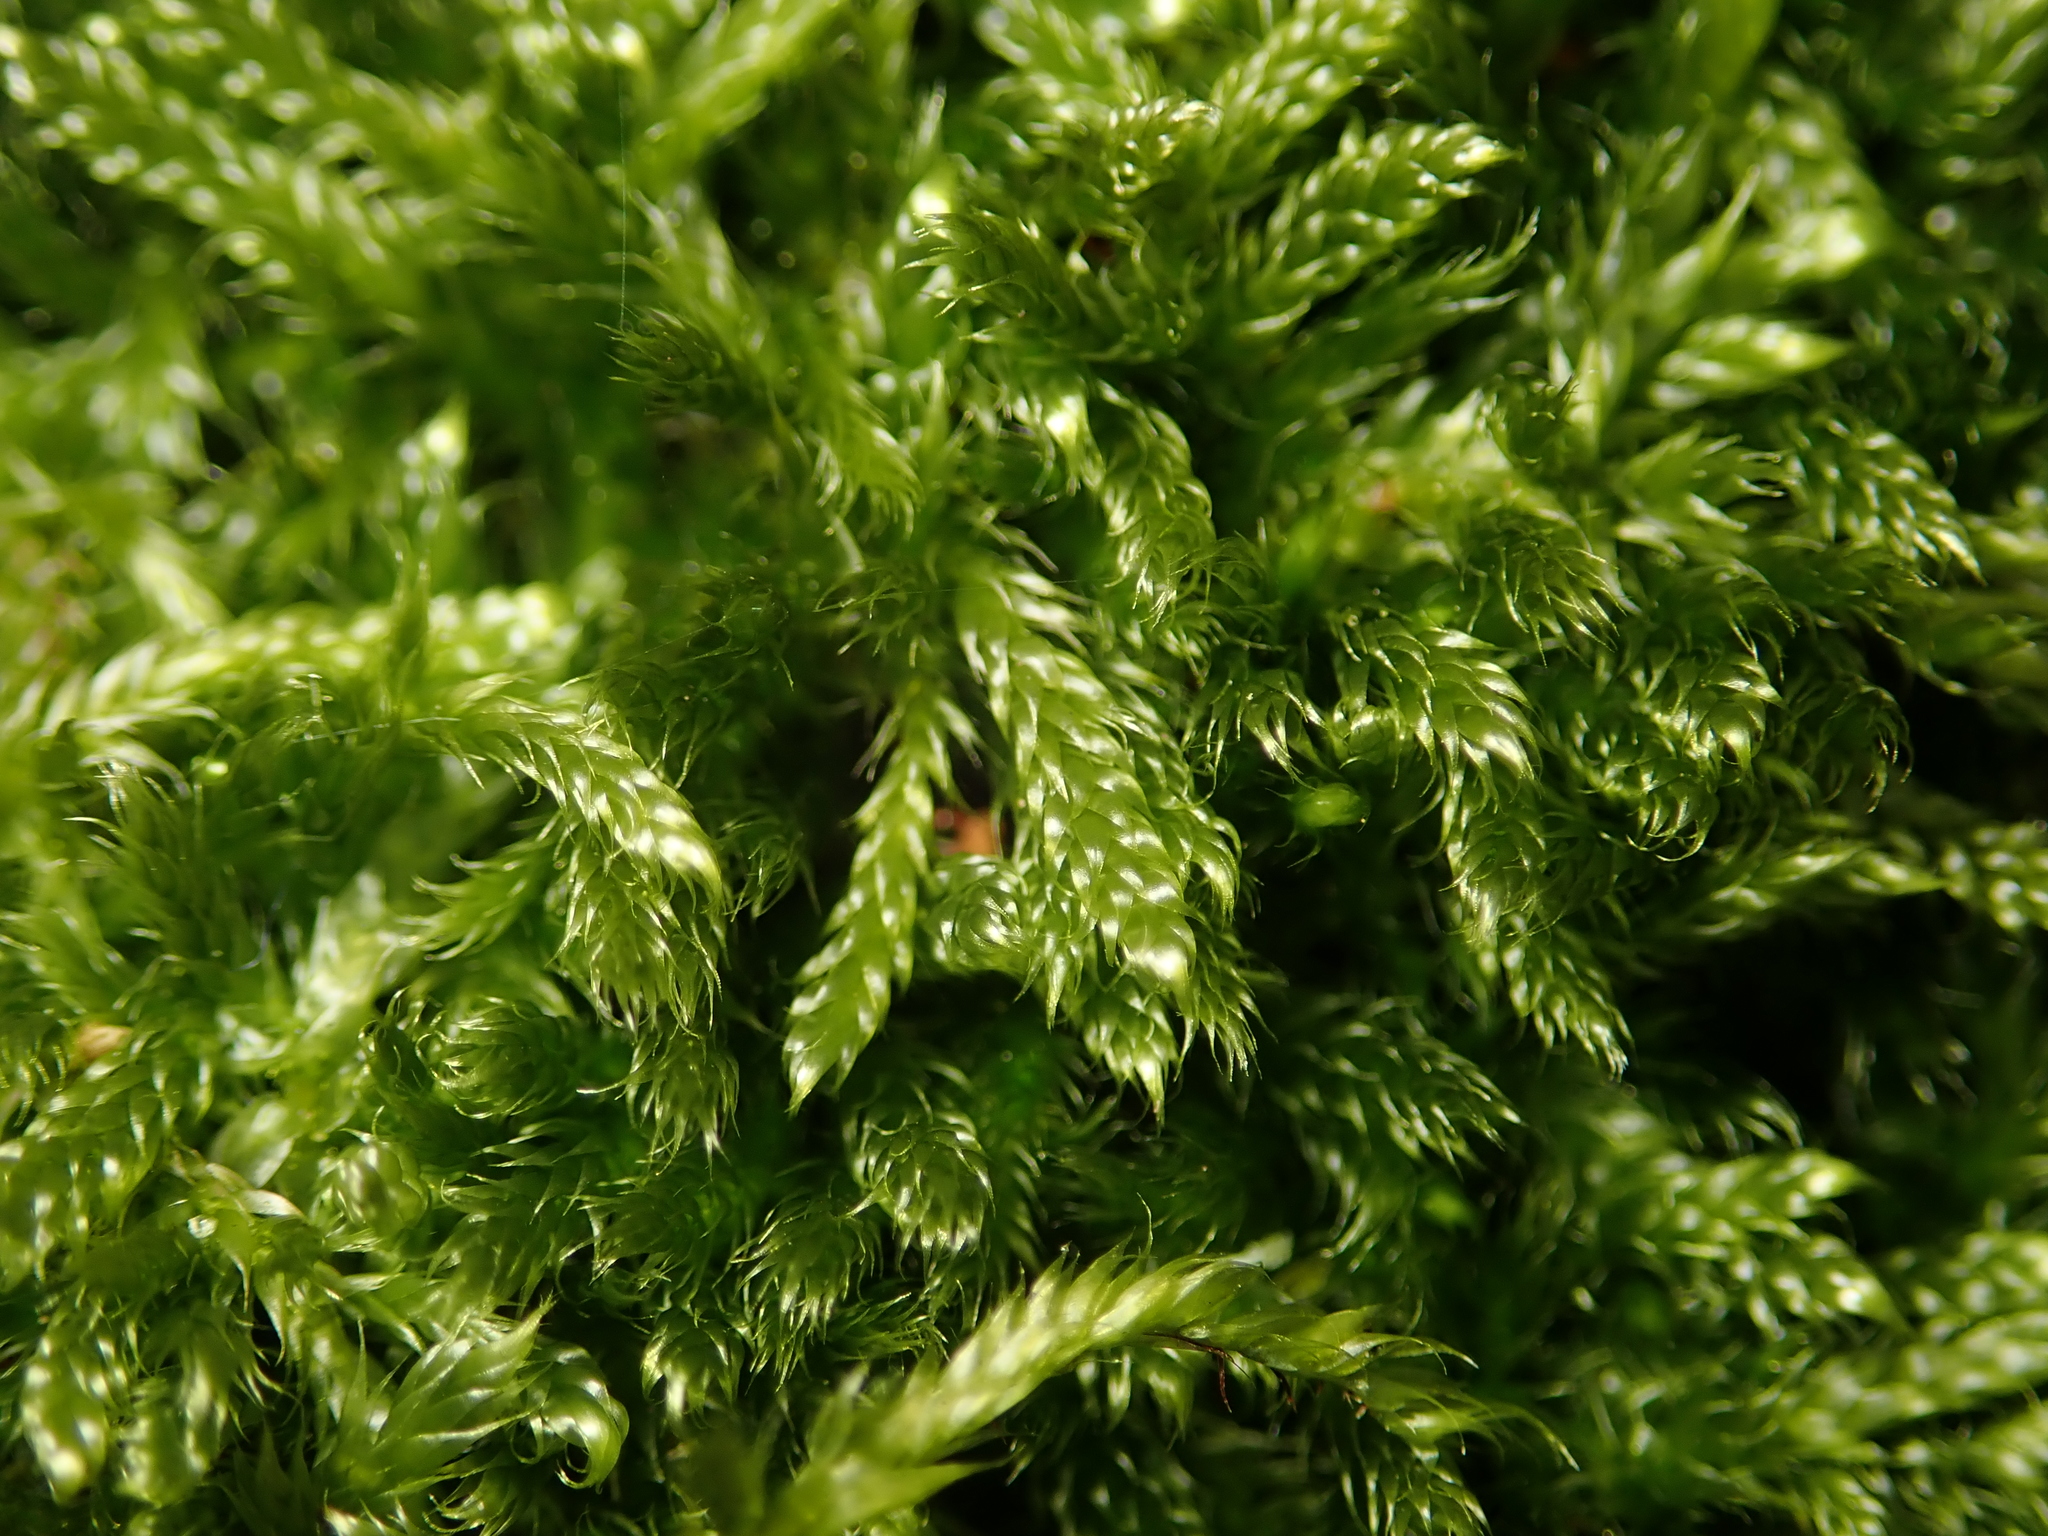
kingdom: Plantae
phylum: Bryophyta
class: Bryopsida
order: Hypnales
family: Hypnaceae
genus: Hypnum
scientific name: Hypnum cupressiforme
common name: Cypress-leaved plait-moss
